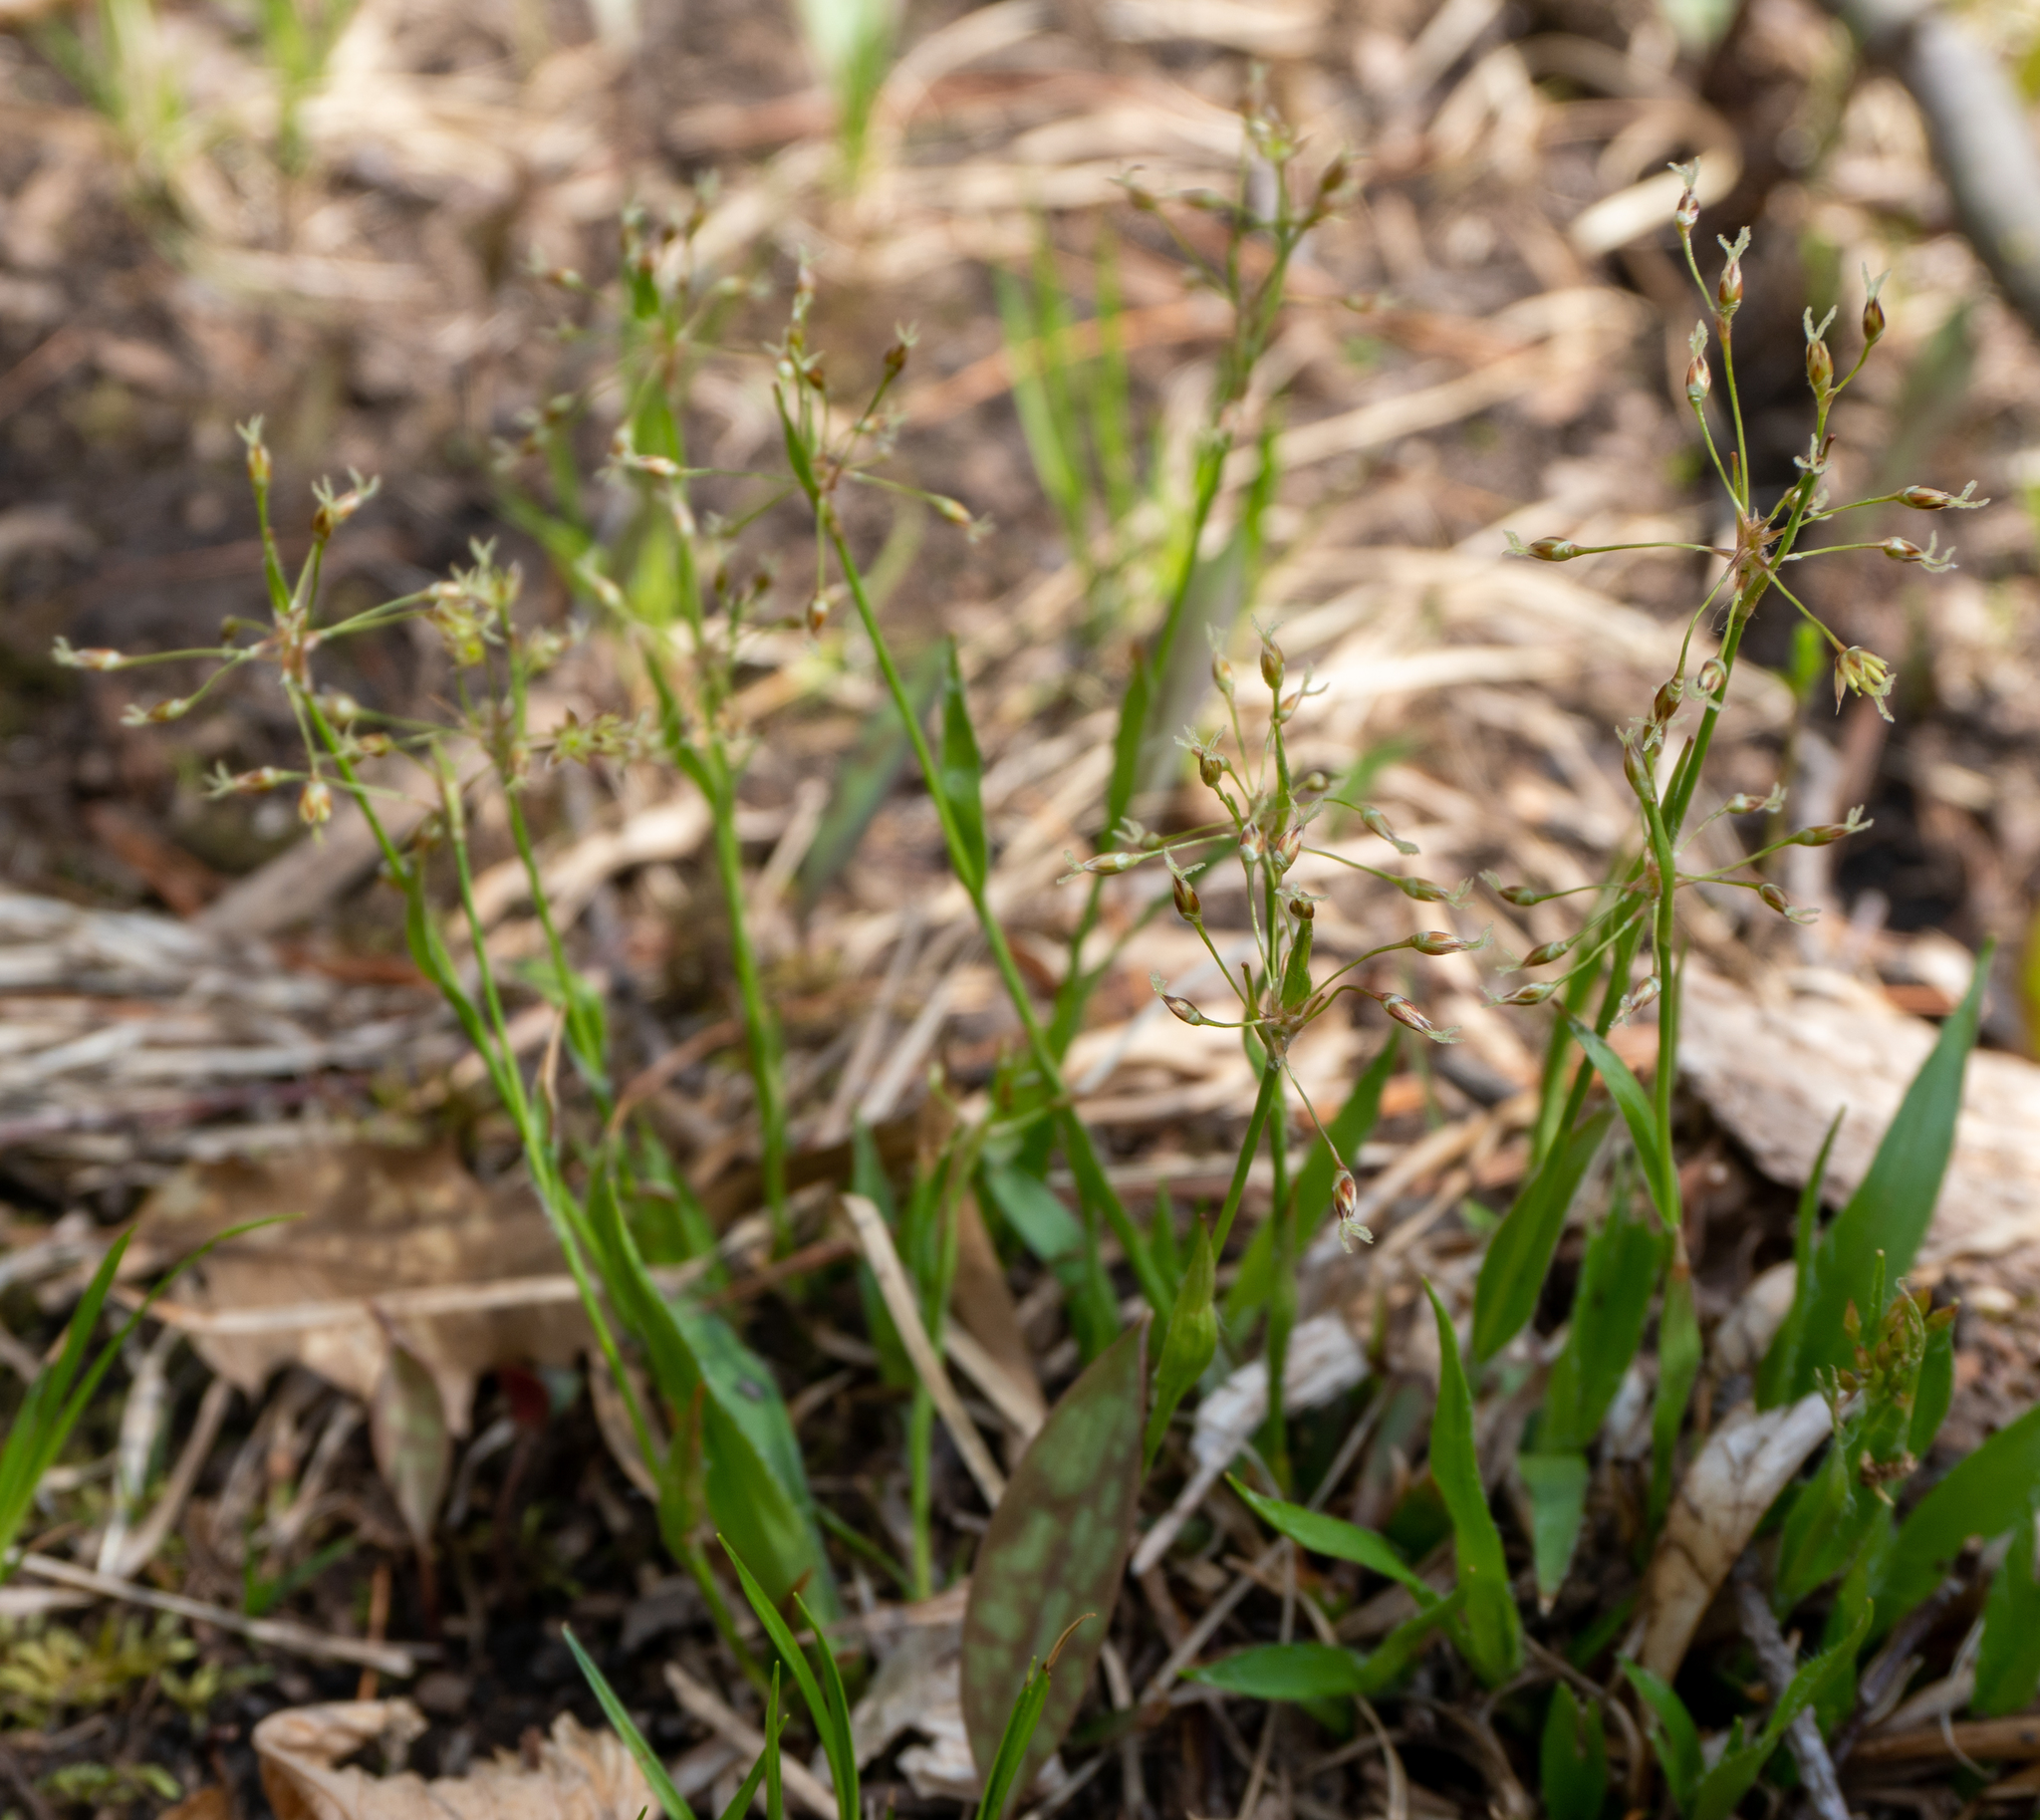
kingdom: Plantae
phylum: Tracheophyta
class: Liliopsida
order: Poales
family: Juncaceae
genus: Luzula
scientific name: Luzula acuminata
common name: Hairy woodrush
